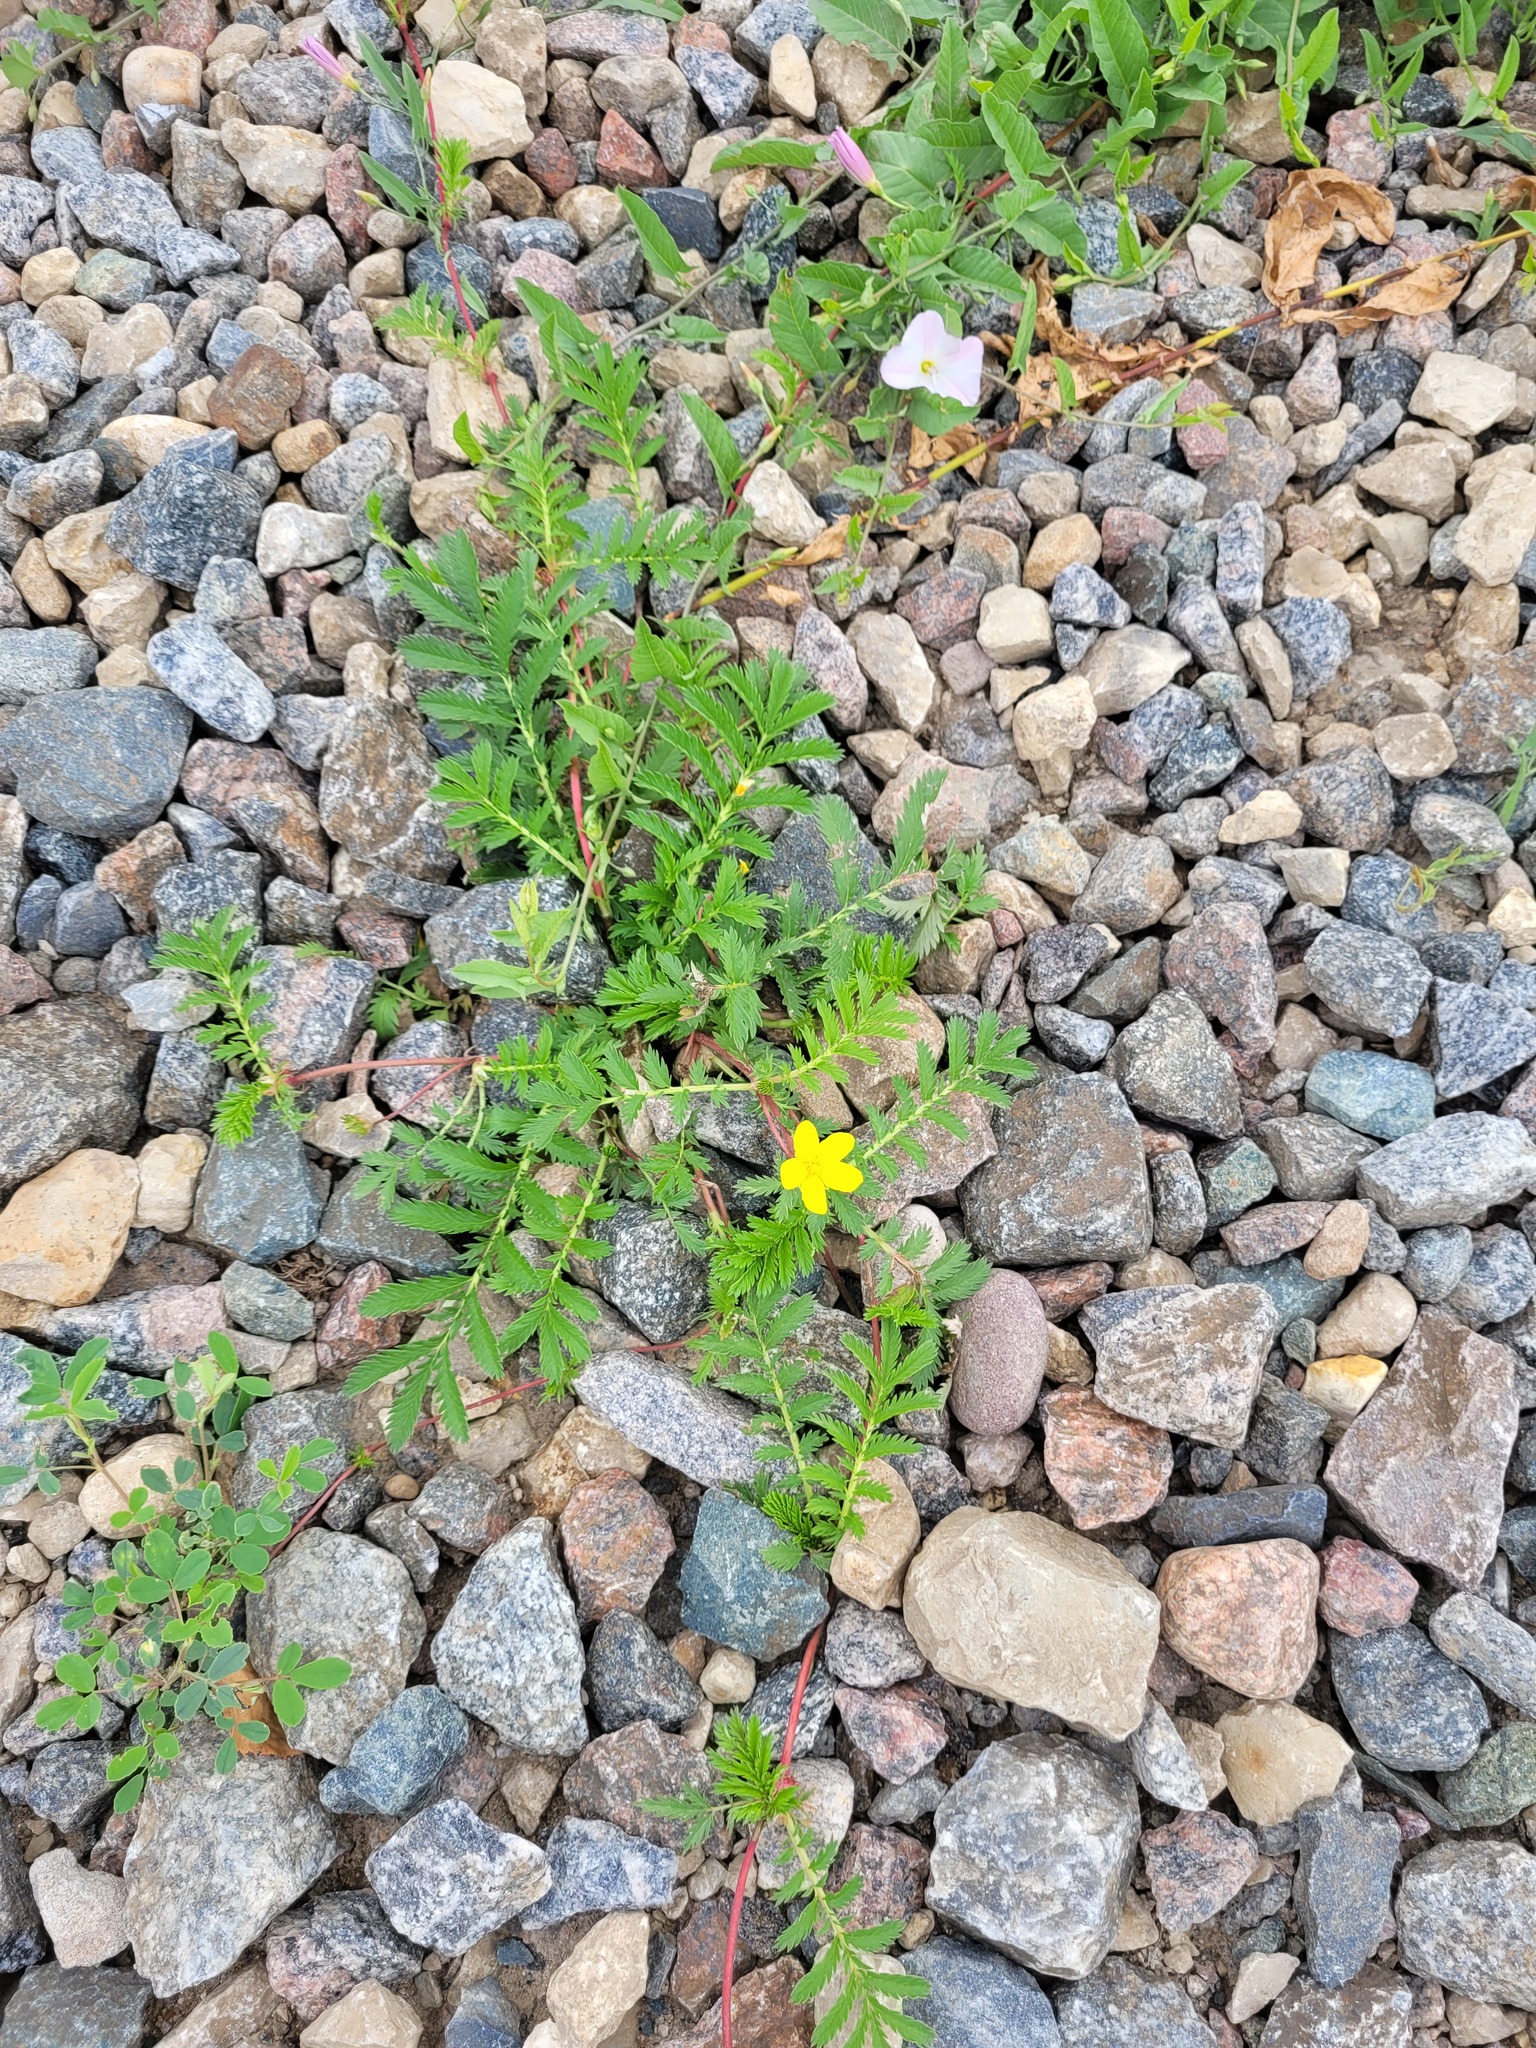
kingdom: Plantae
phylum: Tracheophyta
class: Magnoliopsida
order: Rosales
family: Rosaceae
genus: Argentina
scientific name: Argentina anserina
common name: Common silverweed
